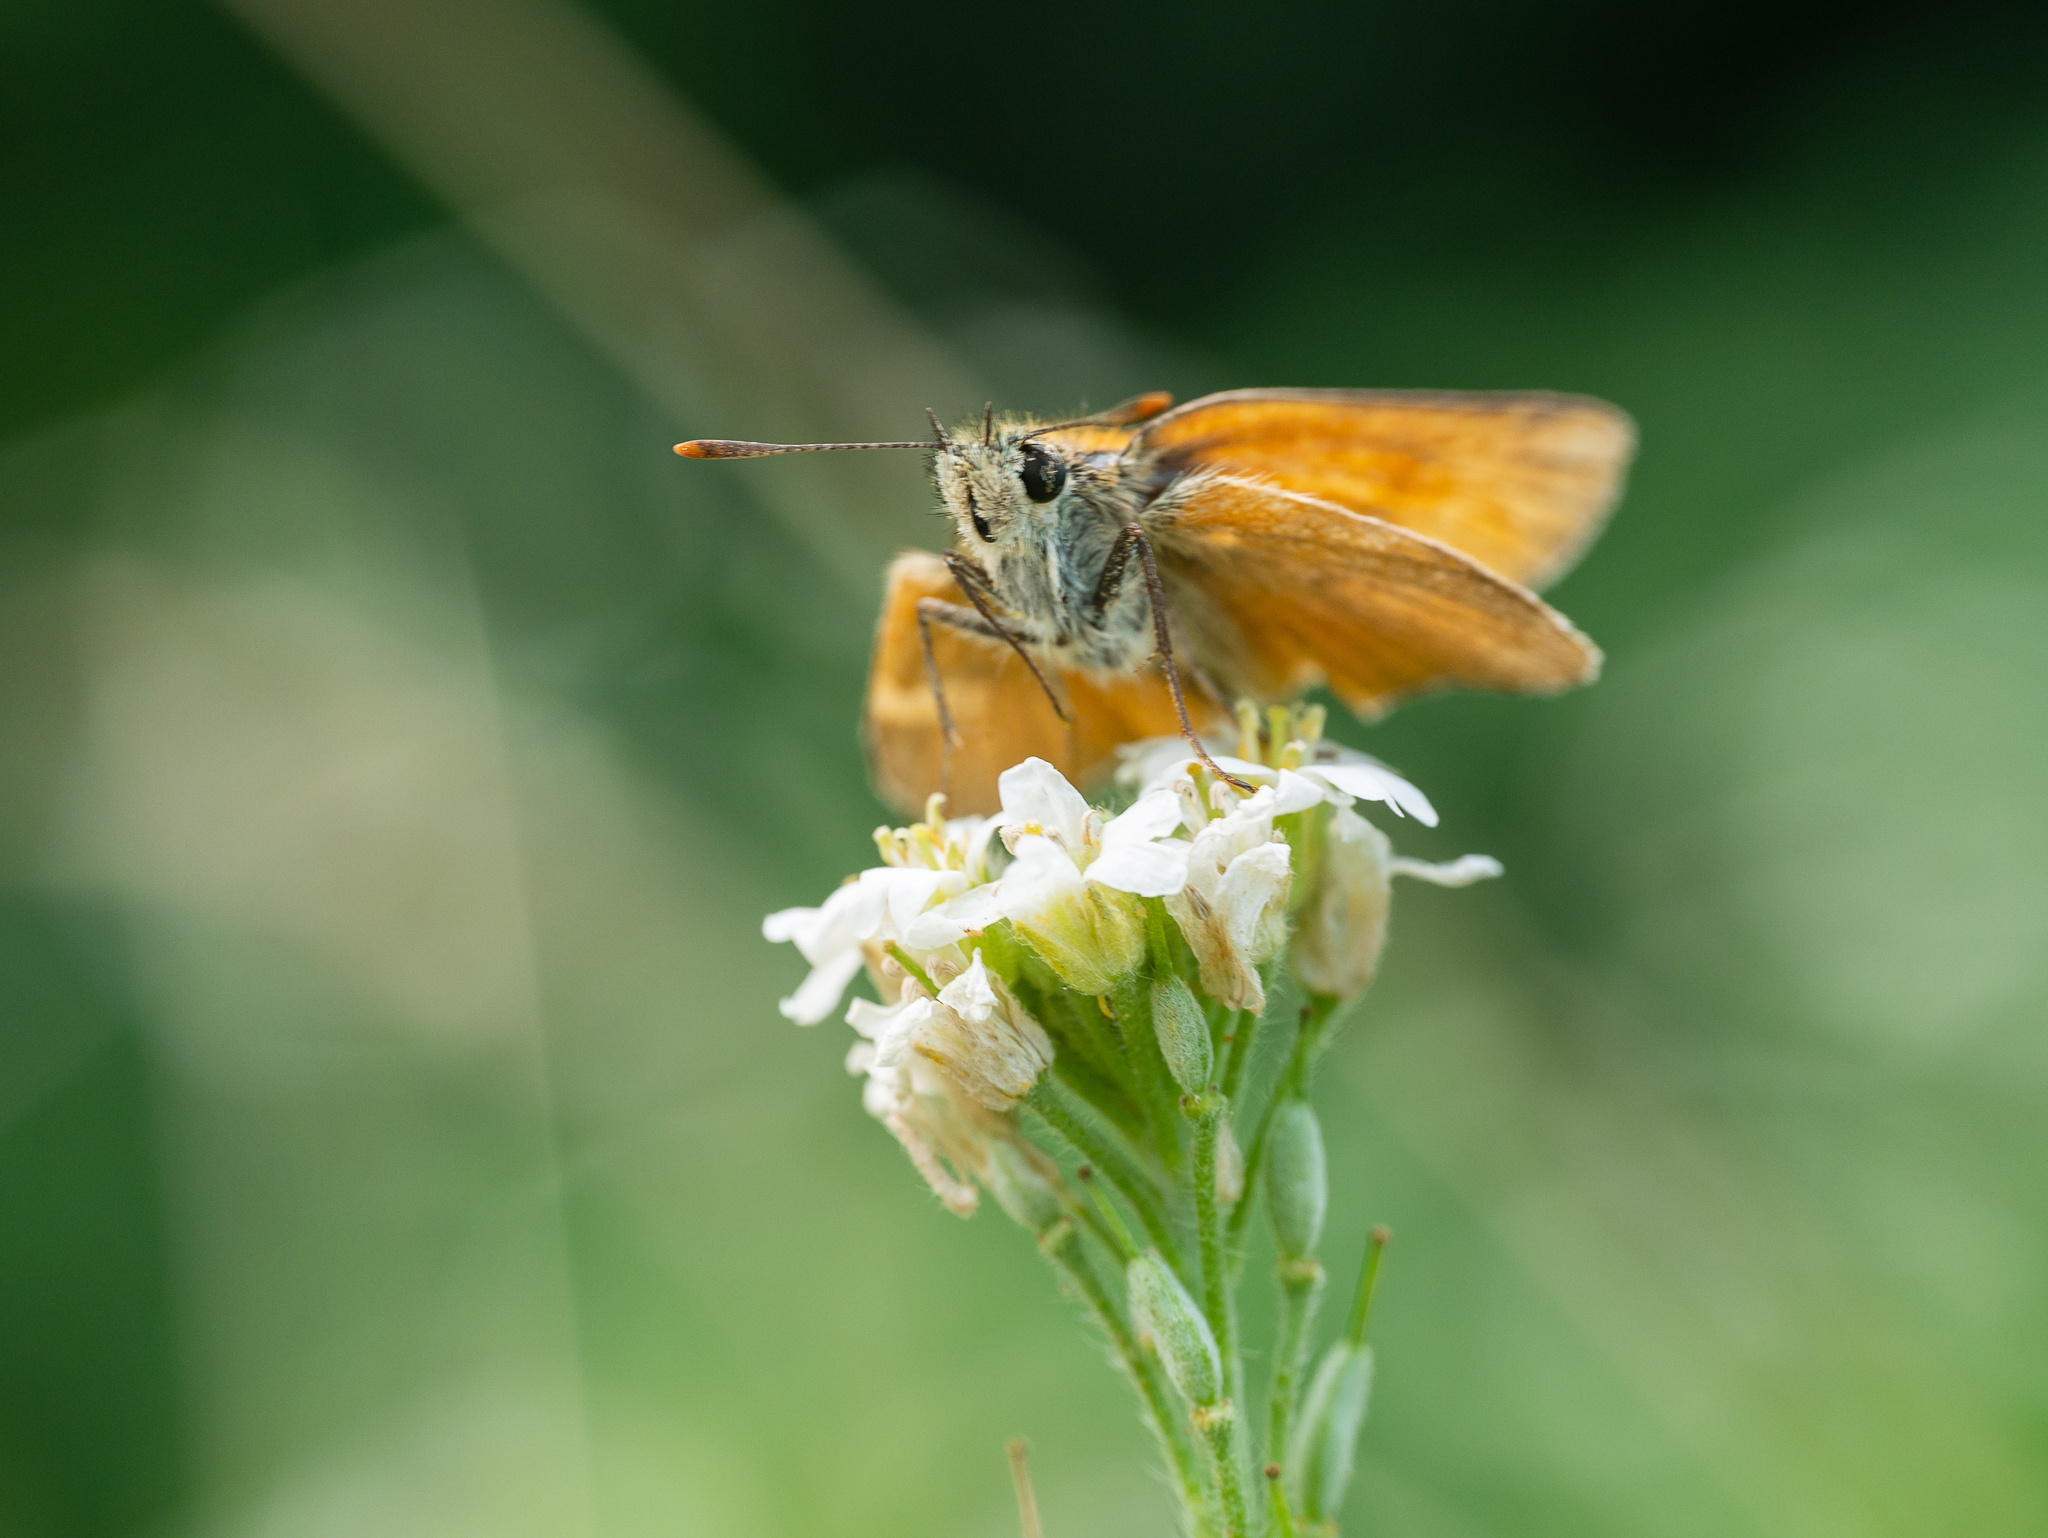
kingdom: Animalia
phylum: Arthropoda
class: Insecta
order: Lepidoptera
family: Hesperiidae
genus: Thymelicus
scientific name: Thymelicus sylvestris
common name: Small skipper
